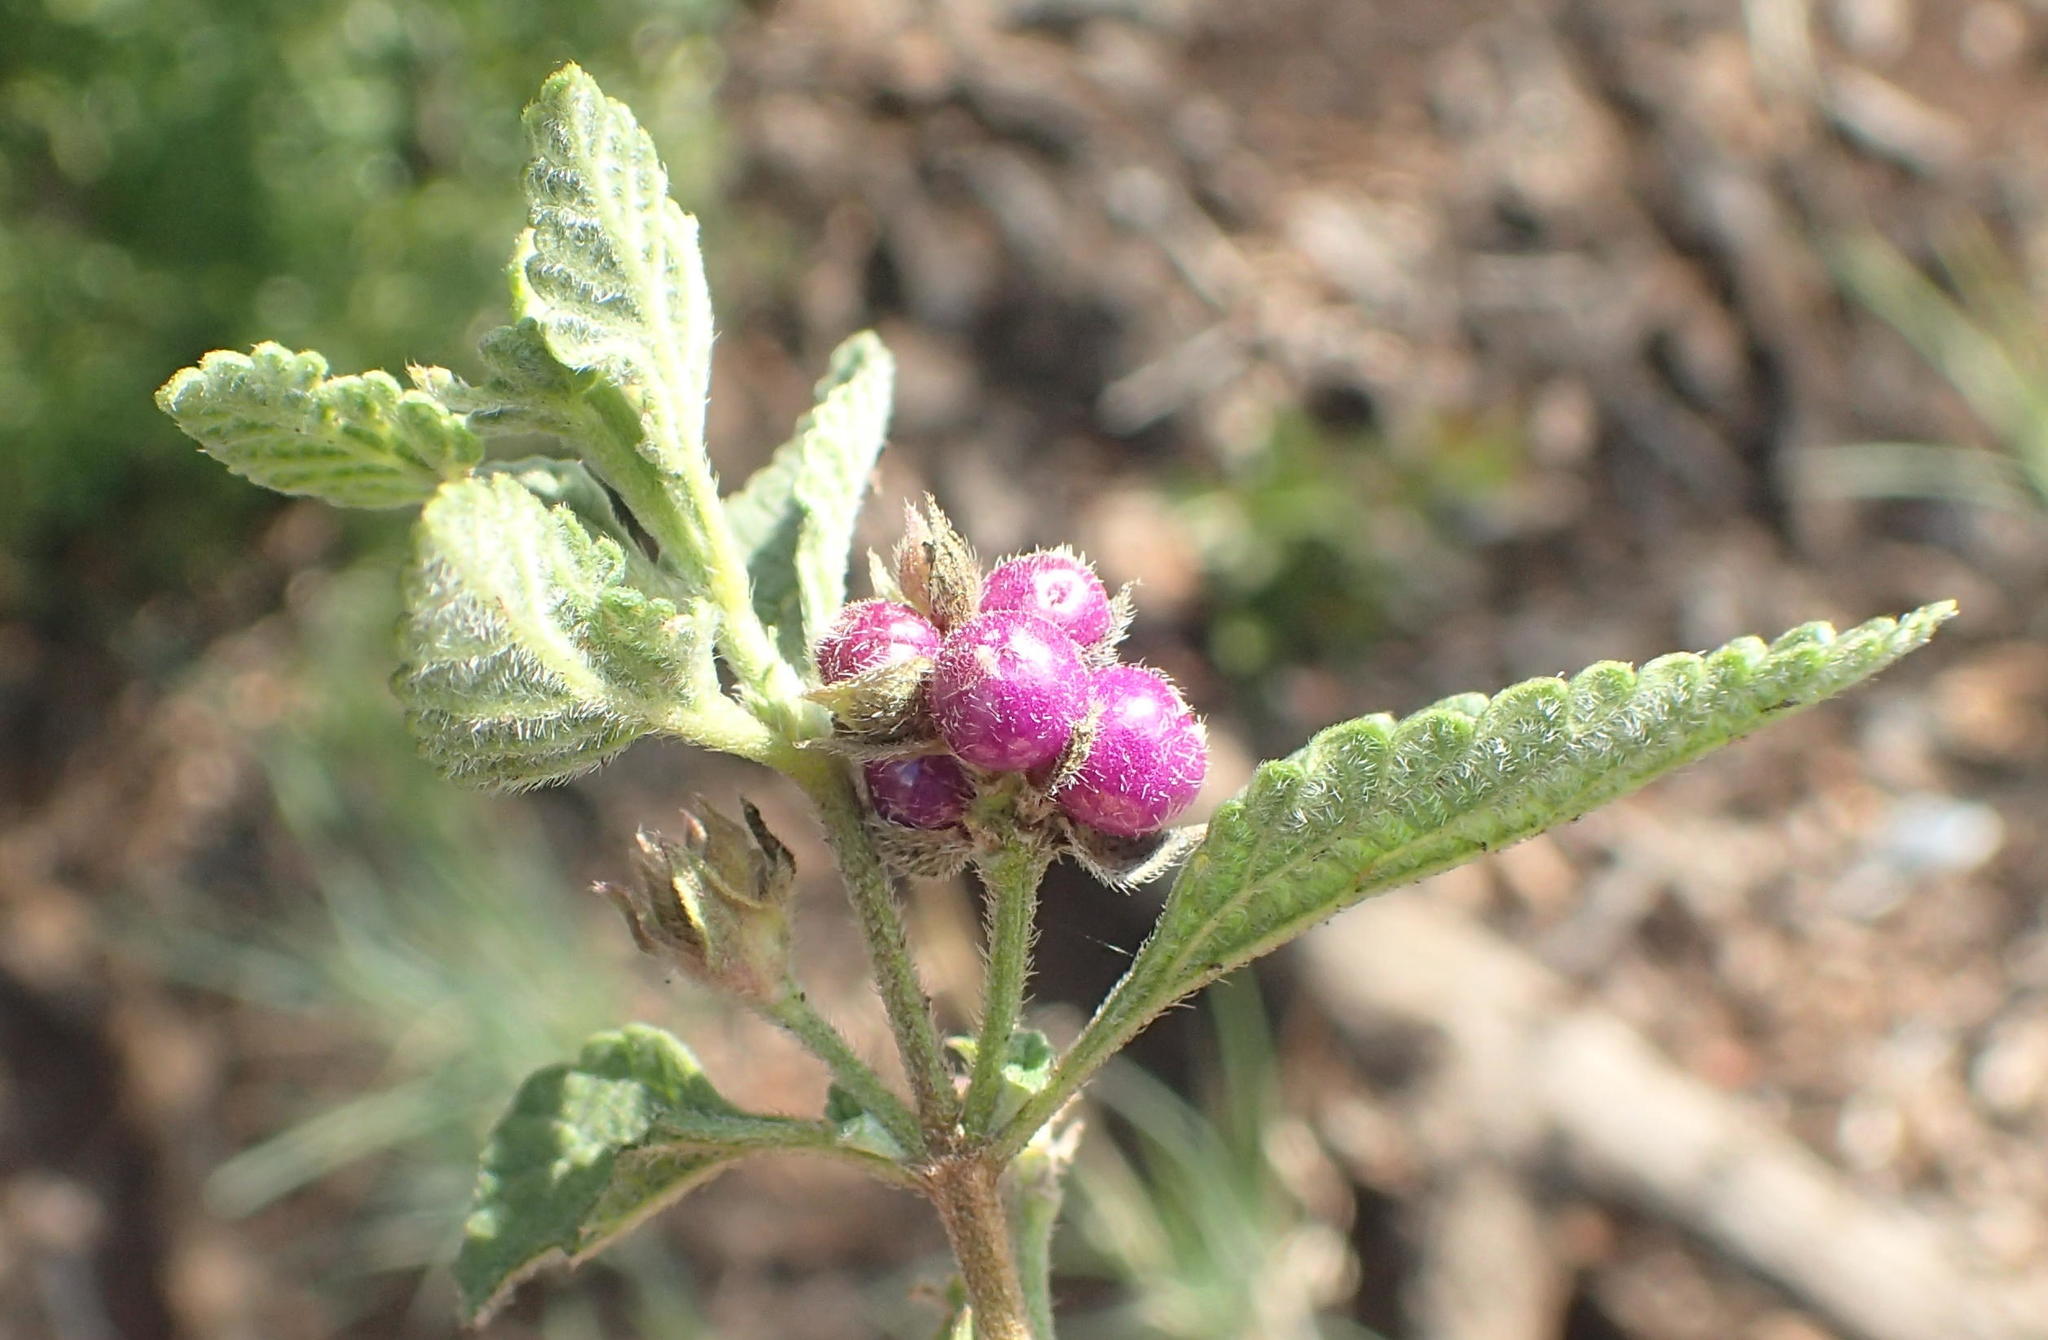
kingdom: Plantae
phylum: Tracheophyta
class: Magnoliopsida
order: Lamiales
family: Verbenaceae
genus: Lantana
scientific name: Lantana rugosa
